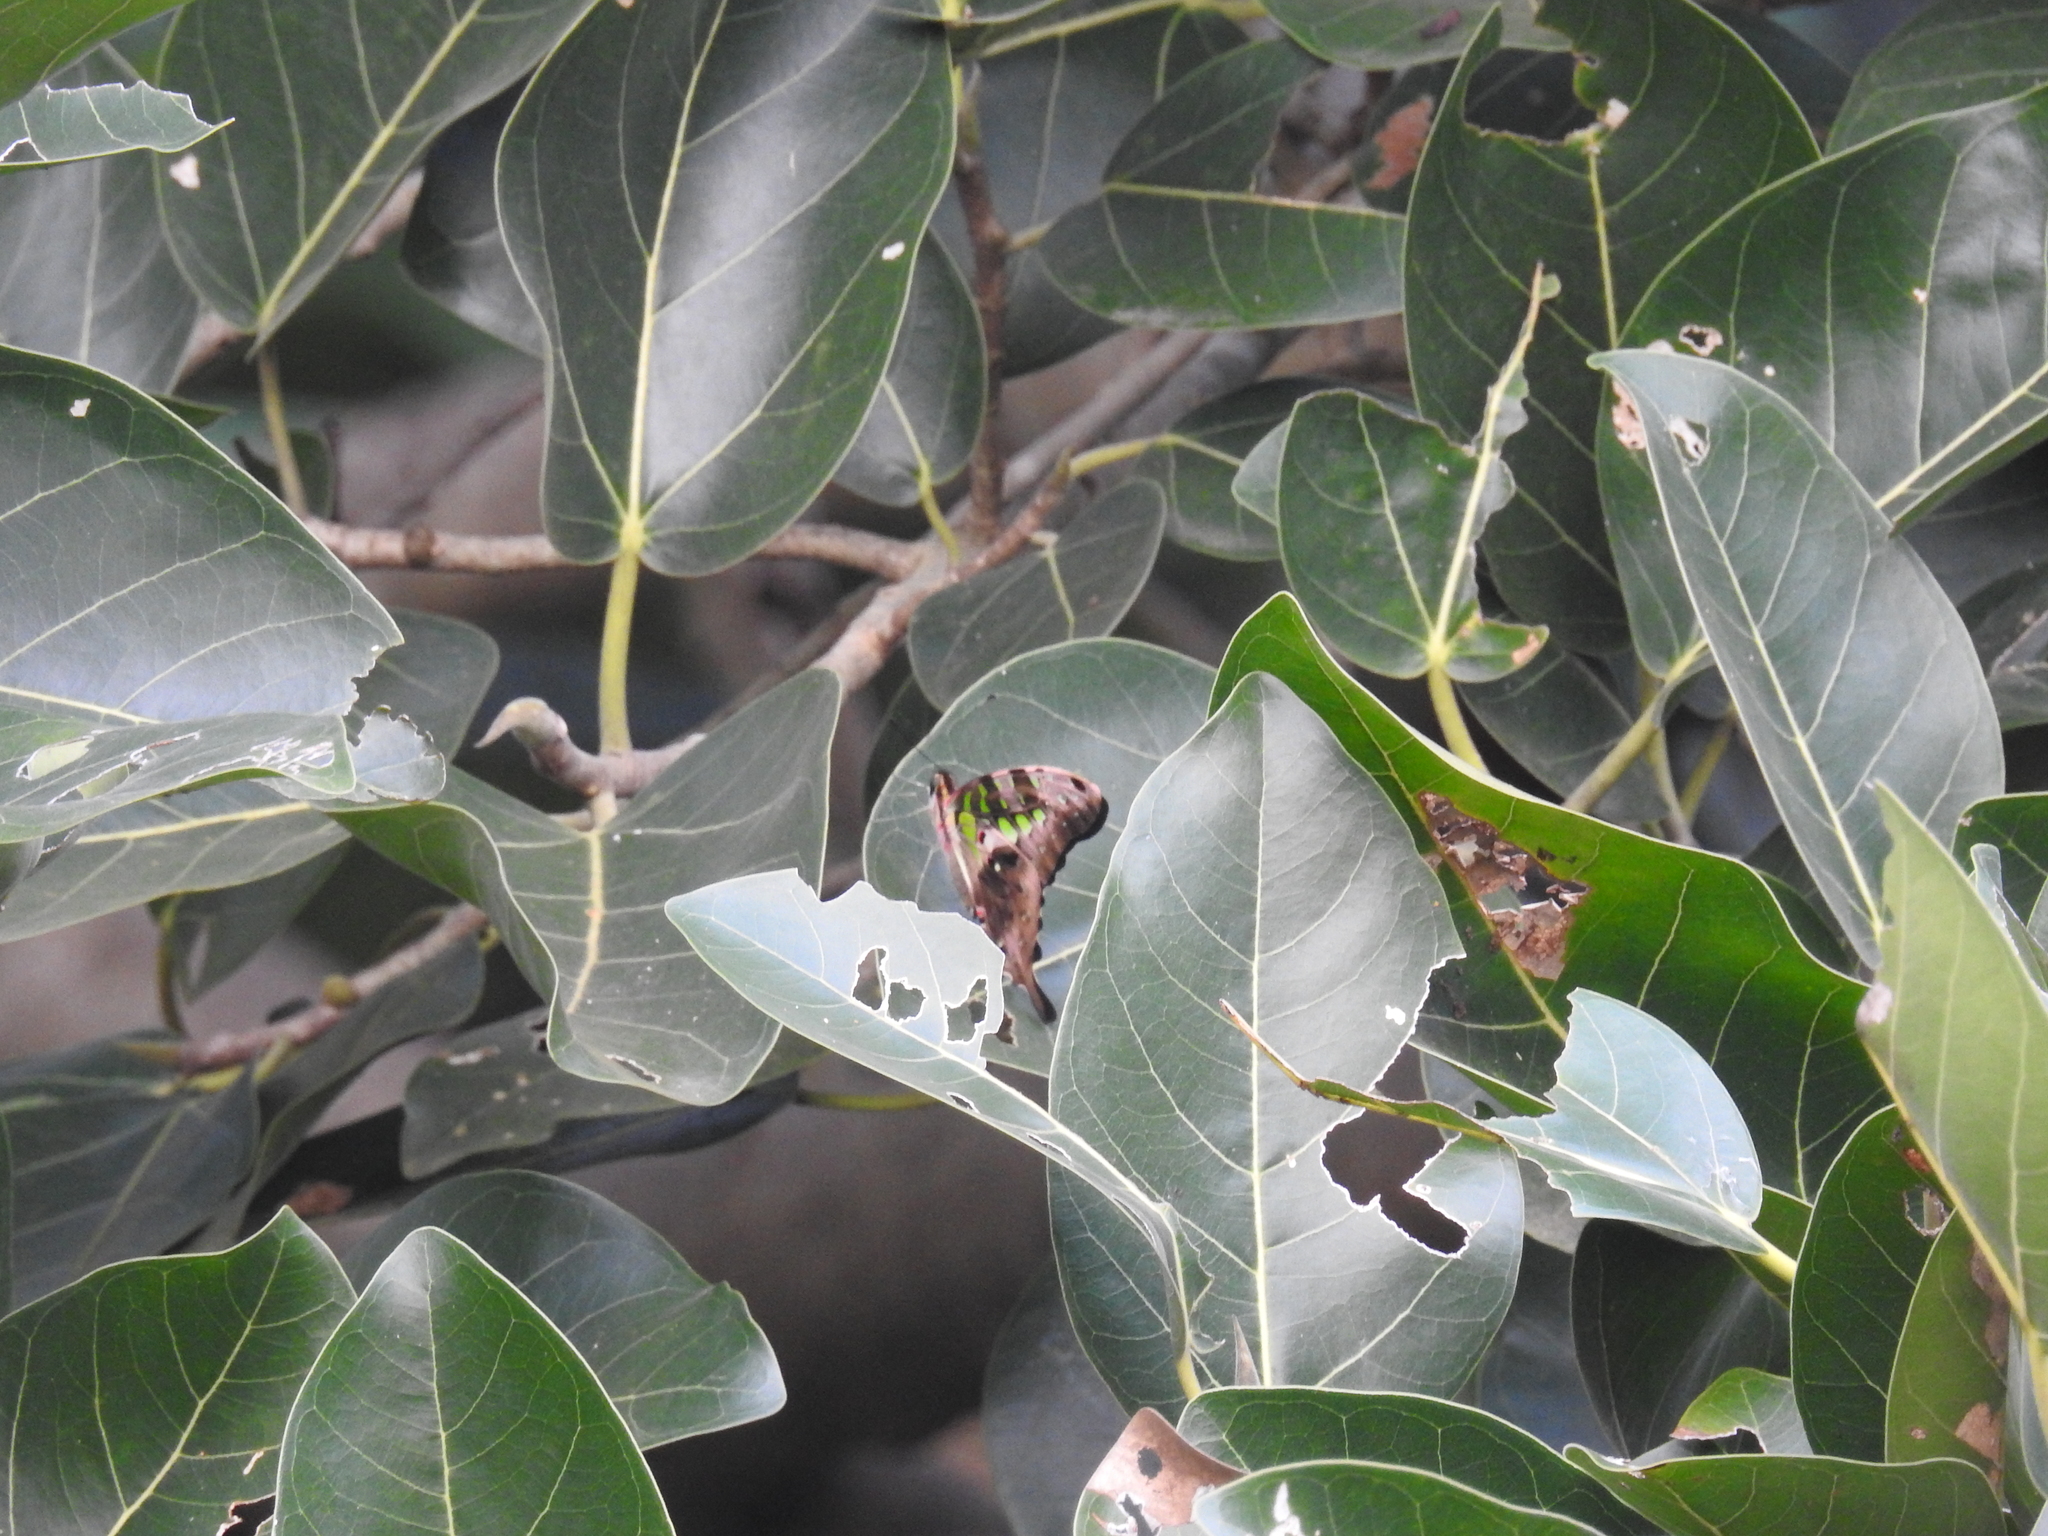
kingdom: Animalia
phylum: Arthropoda
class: Insecta
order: Lepidoptera
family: Papilionidae
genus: Graphium
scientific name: Graphium agamemnon
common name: Tailed jay
